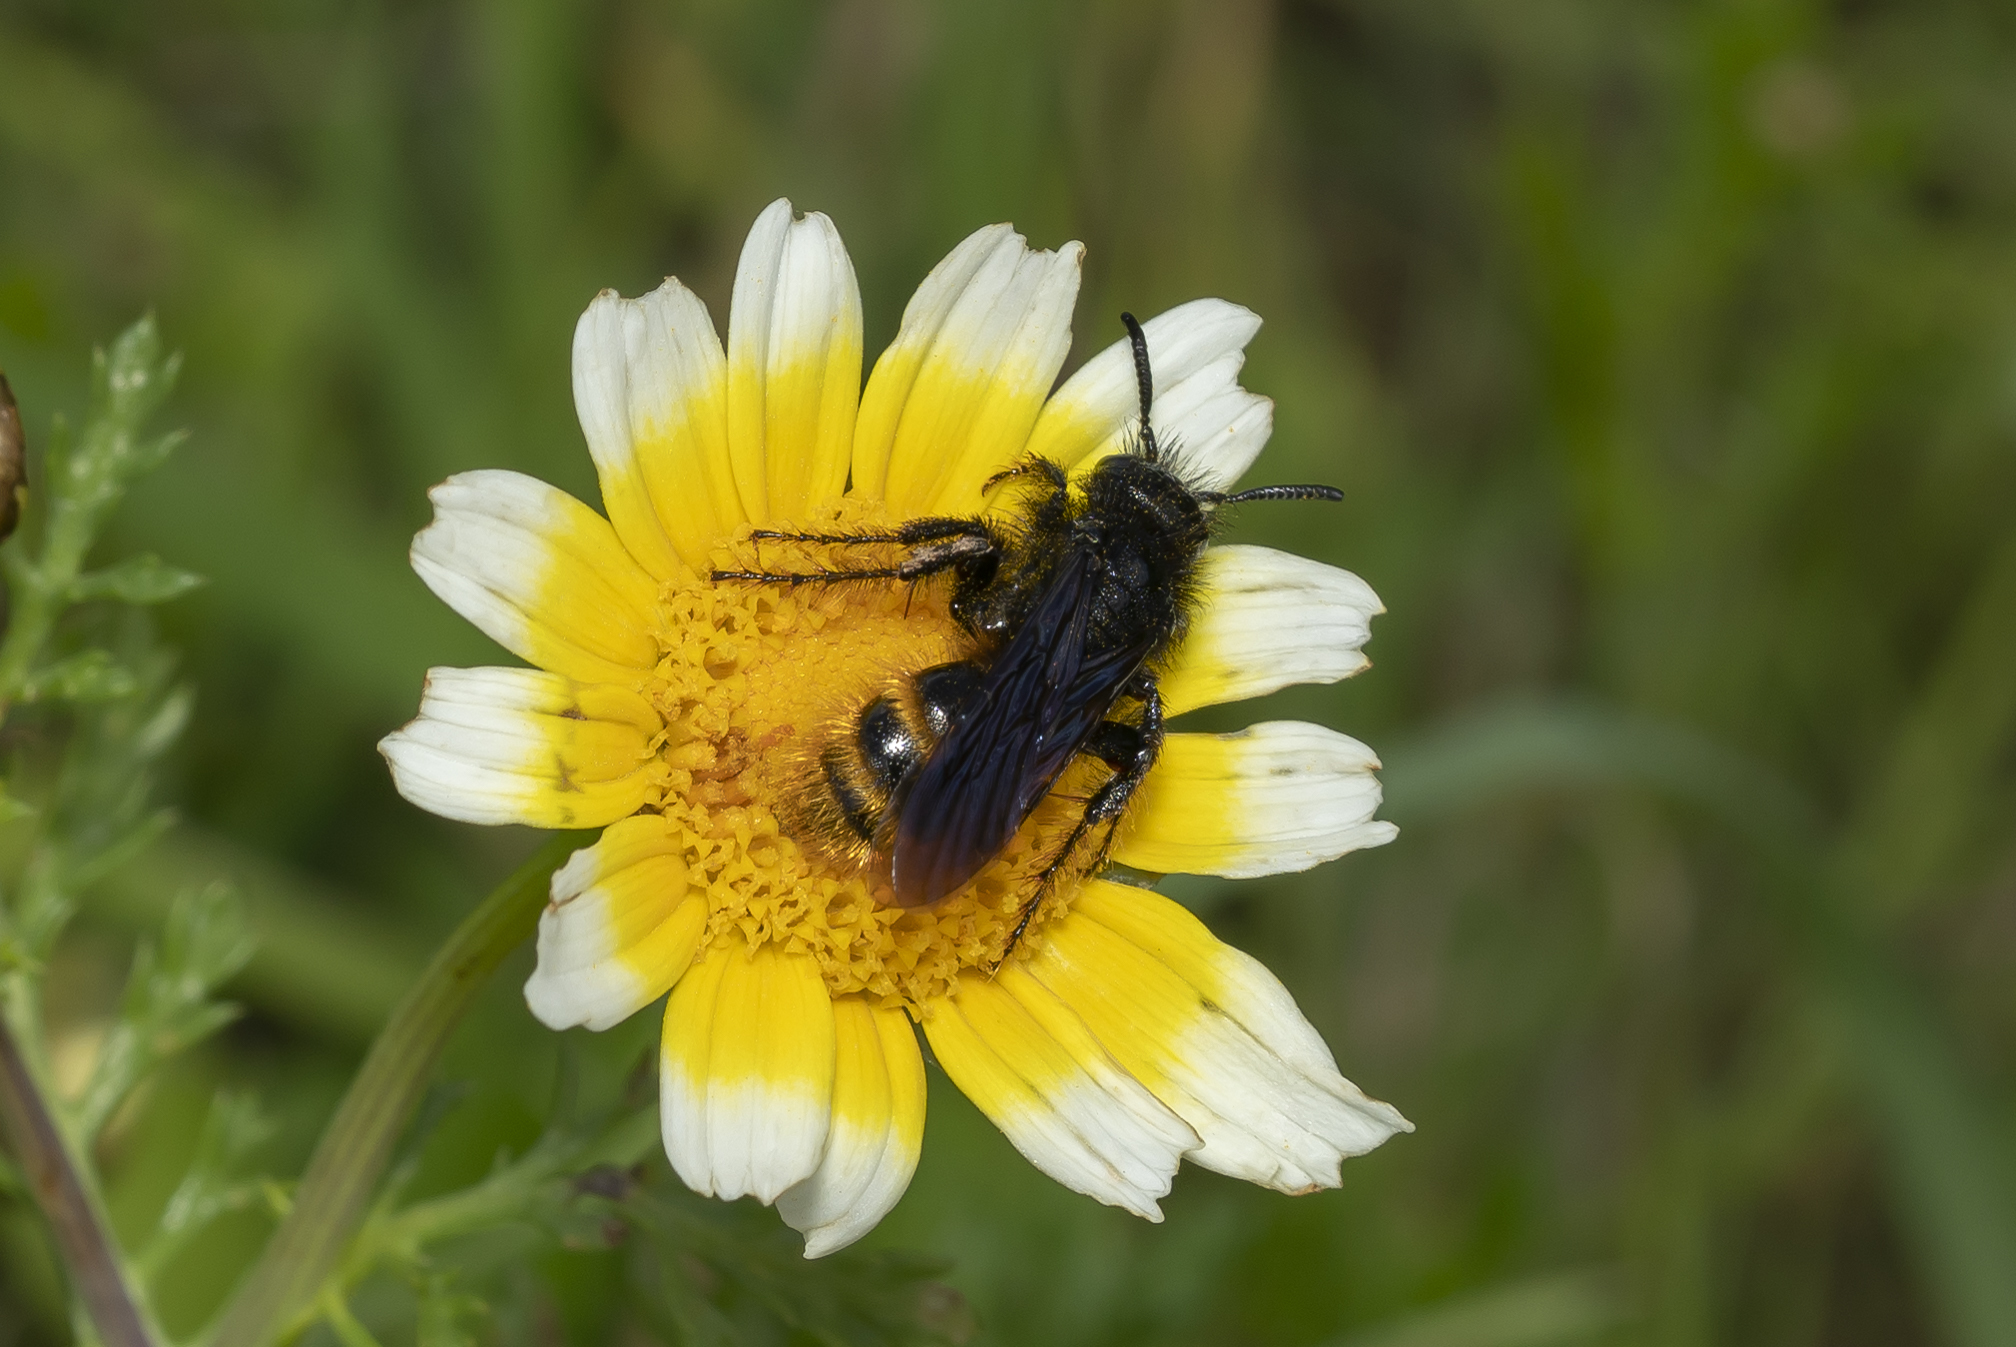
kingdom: Animalia
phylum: Arthropoda
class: Insecta
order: Hymenoptera
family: Scoliidae
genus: Dasyscolia
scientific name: Dasyscolia ciliata
